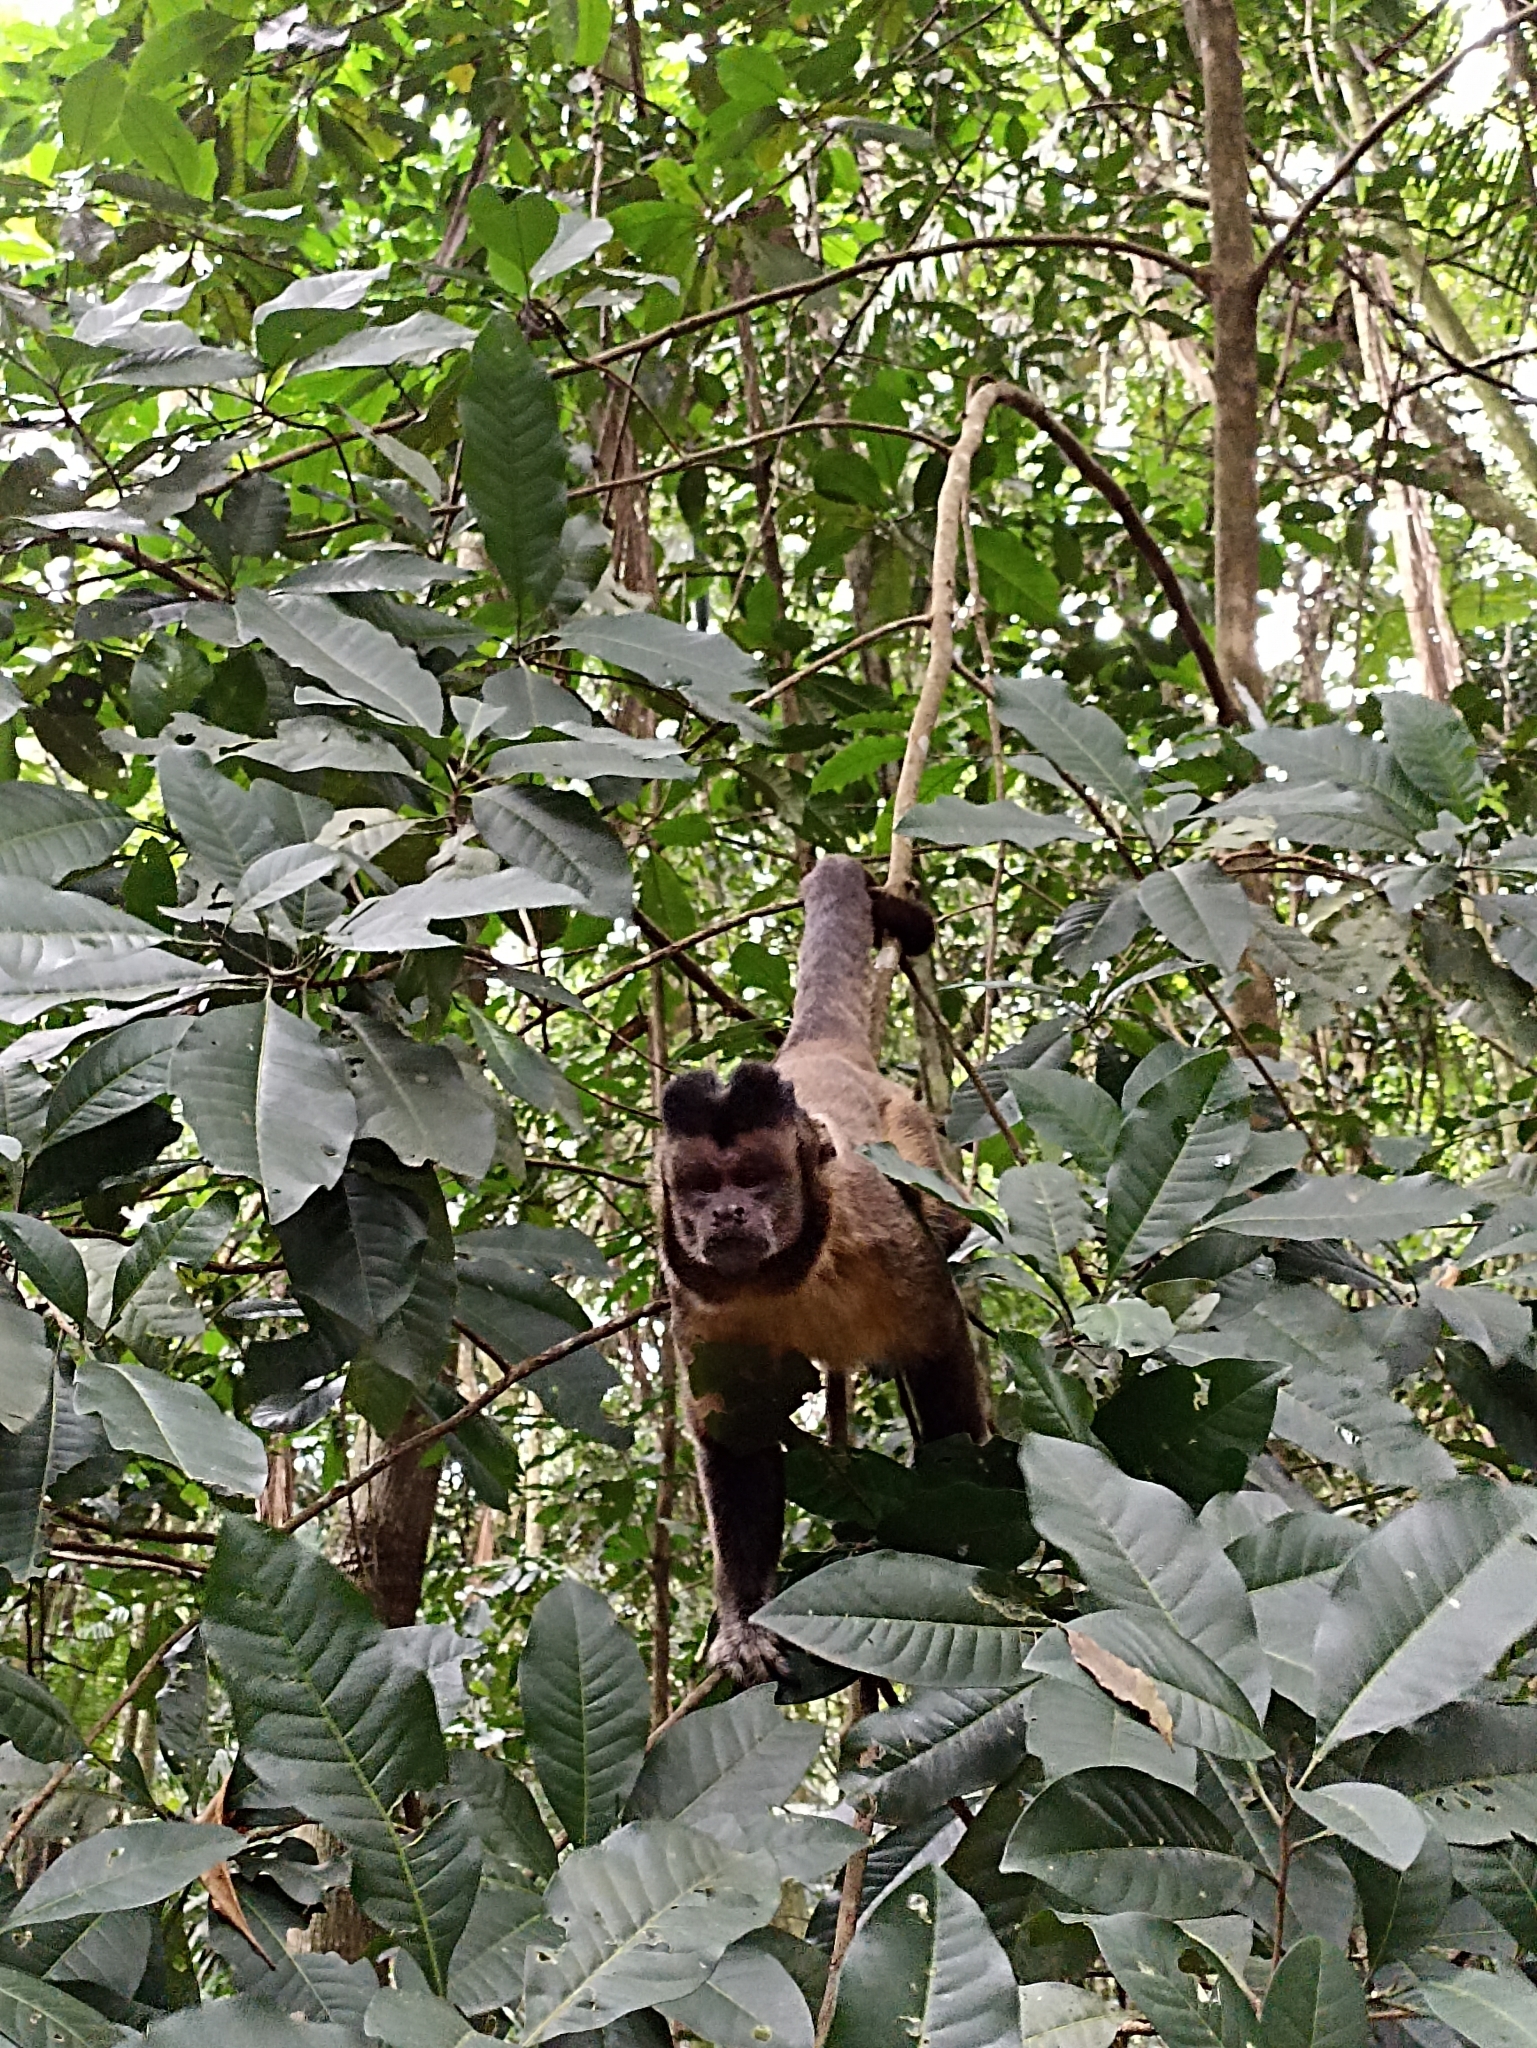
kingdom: Animalia
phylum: Chordata
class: Mammalia
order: Primates
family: Cebidae
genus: Sapajus
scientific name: Sapajus nigritus
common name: Black capuchin
